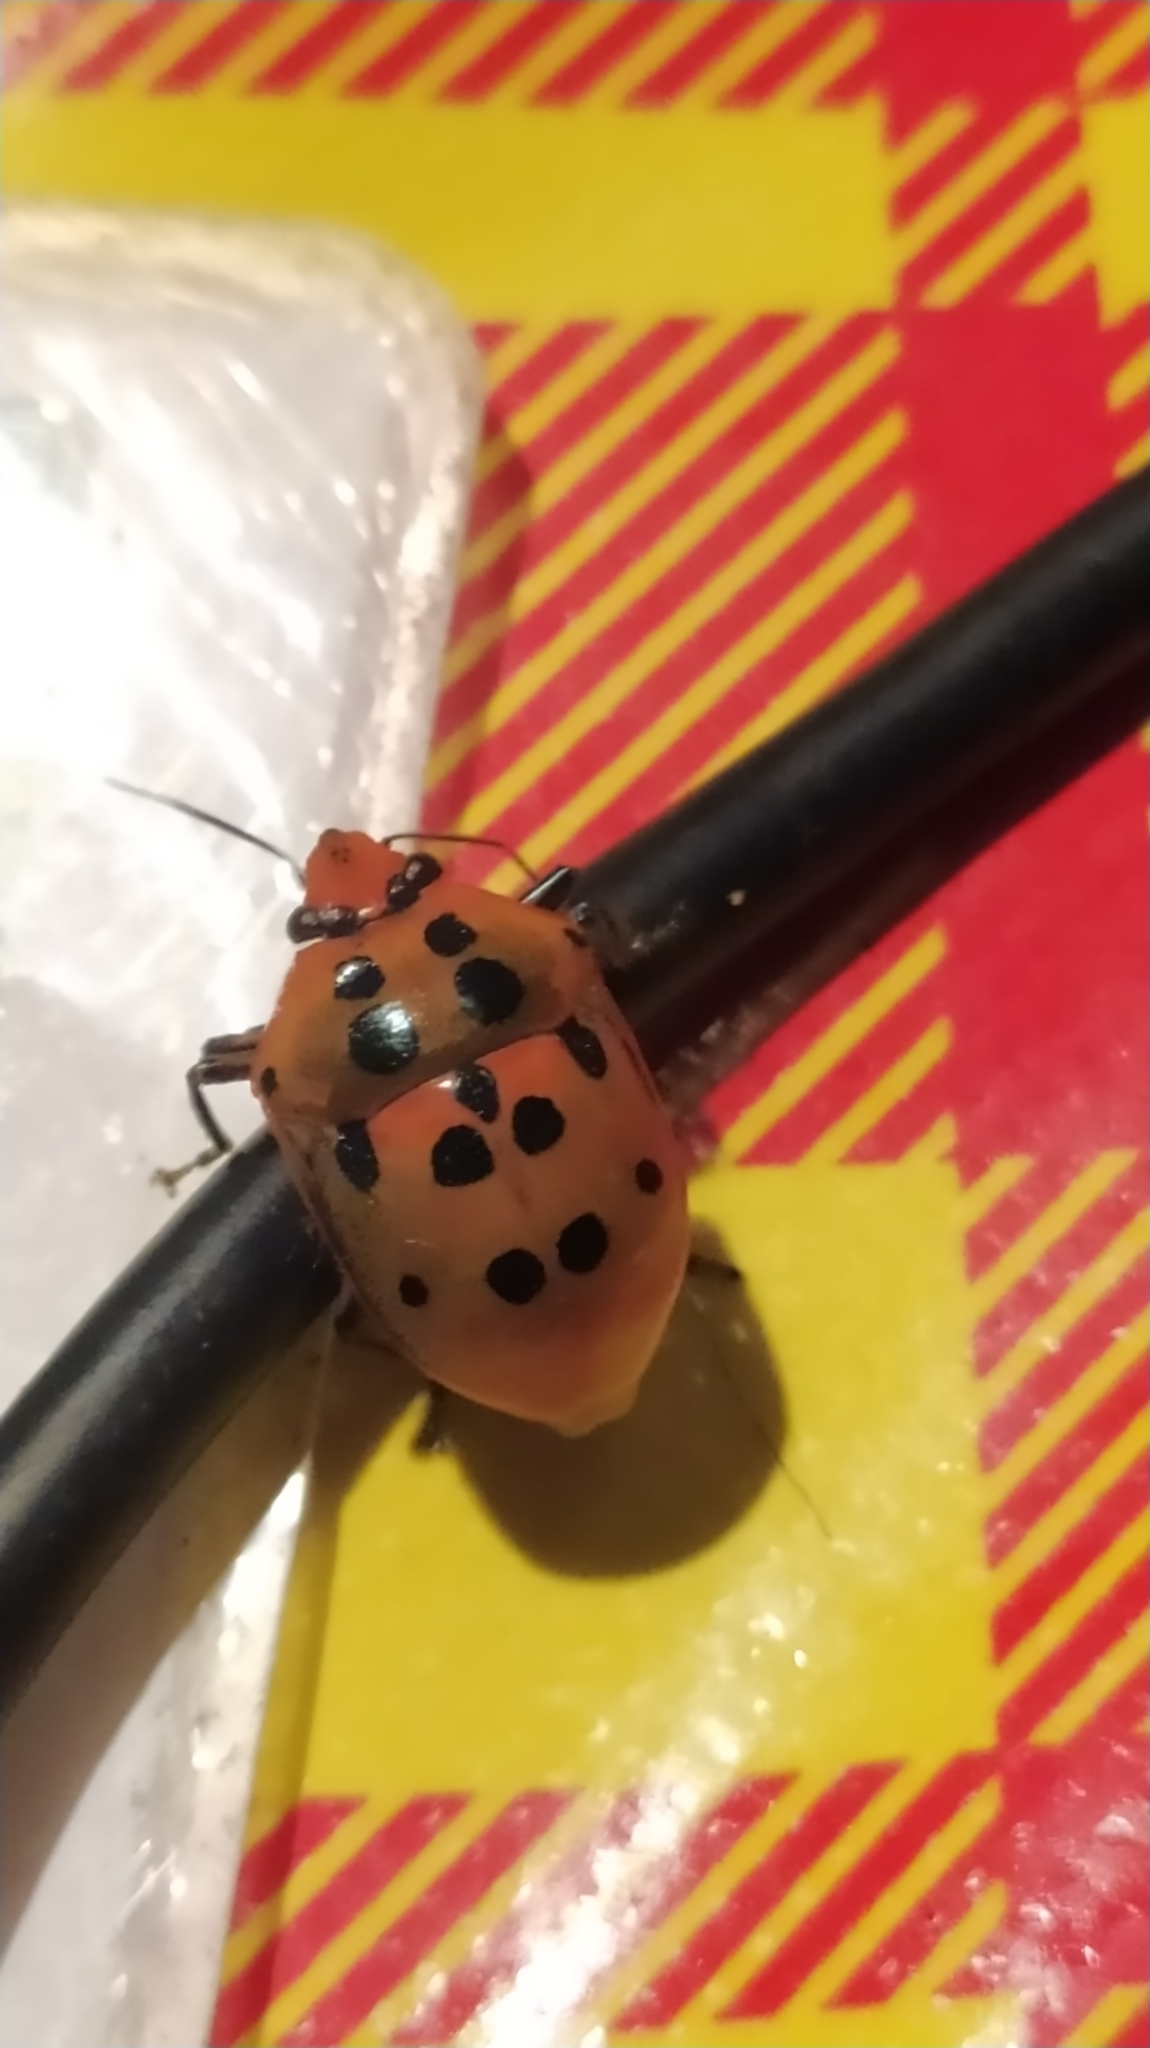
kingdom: Animalia
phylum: Arthropoda
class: Insecta
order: Hemiptera
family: Scutelleridae
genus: Augocoris
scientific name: Augocoris gomesii
